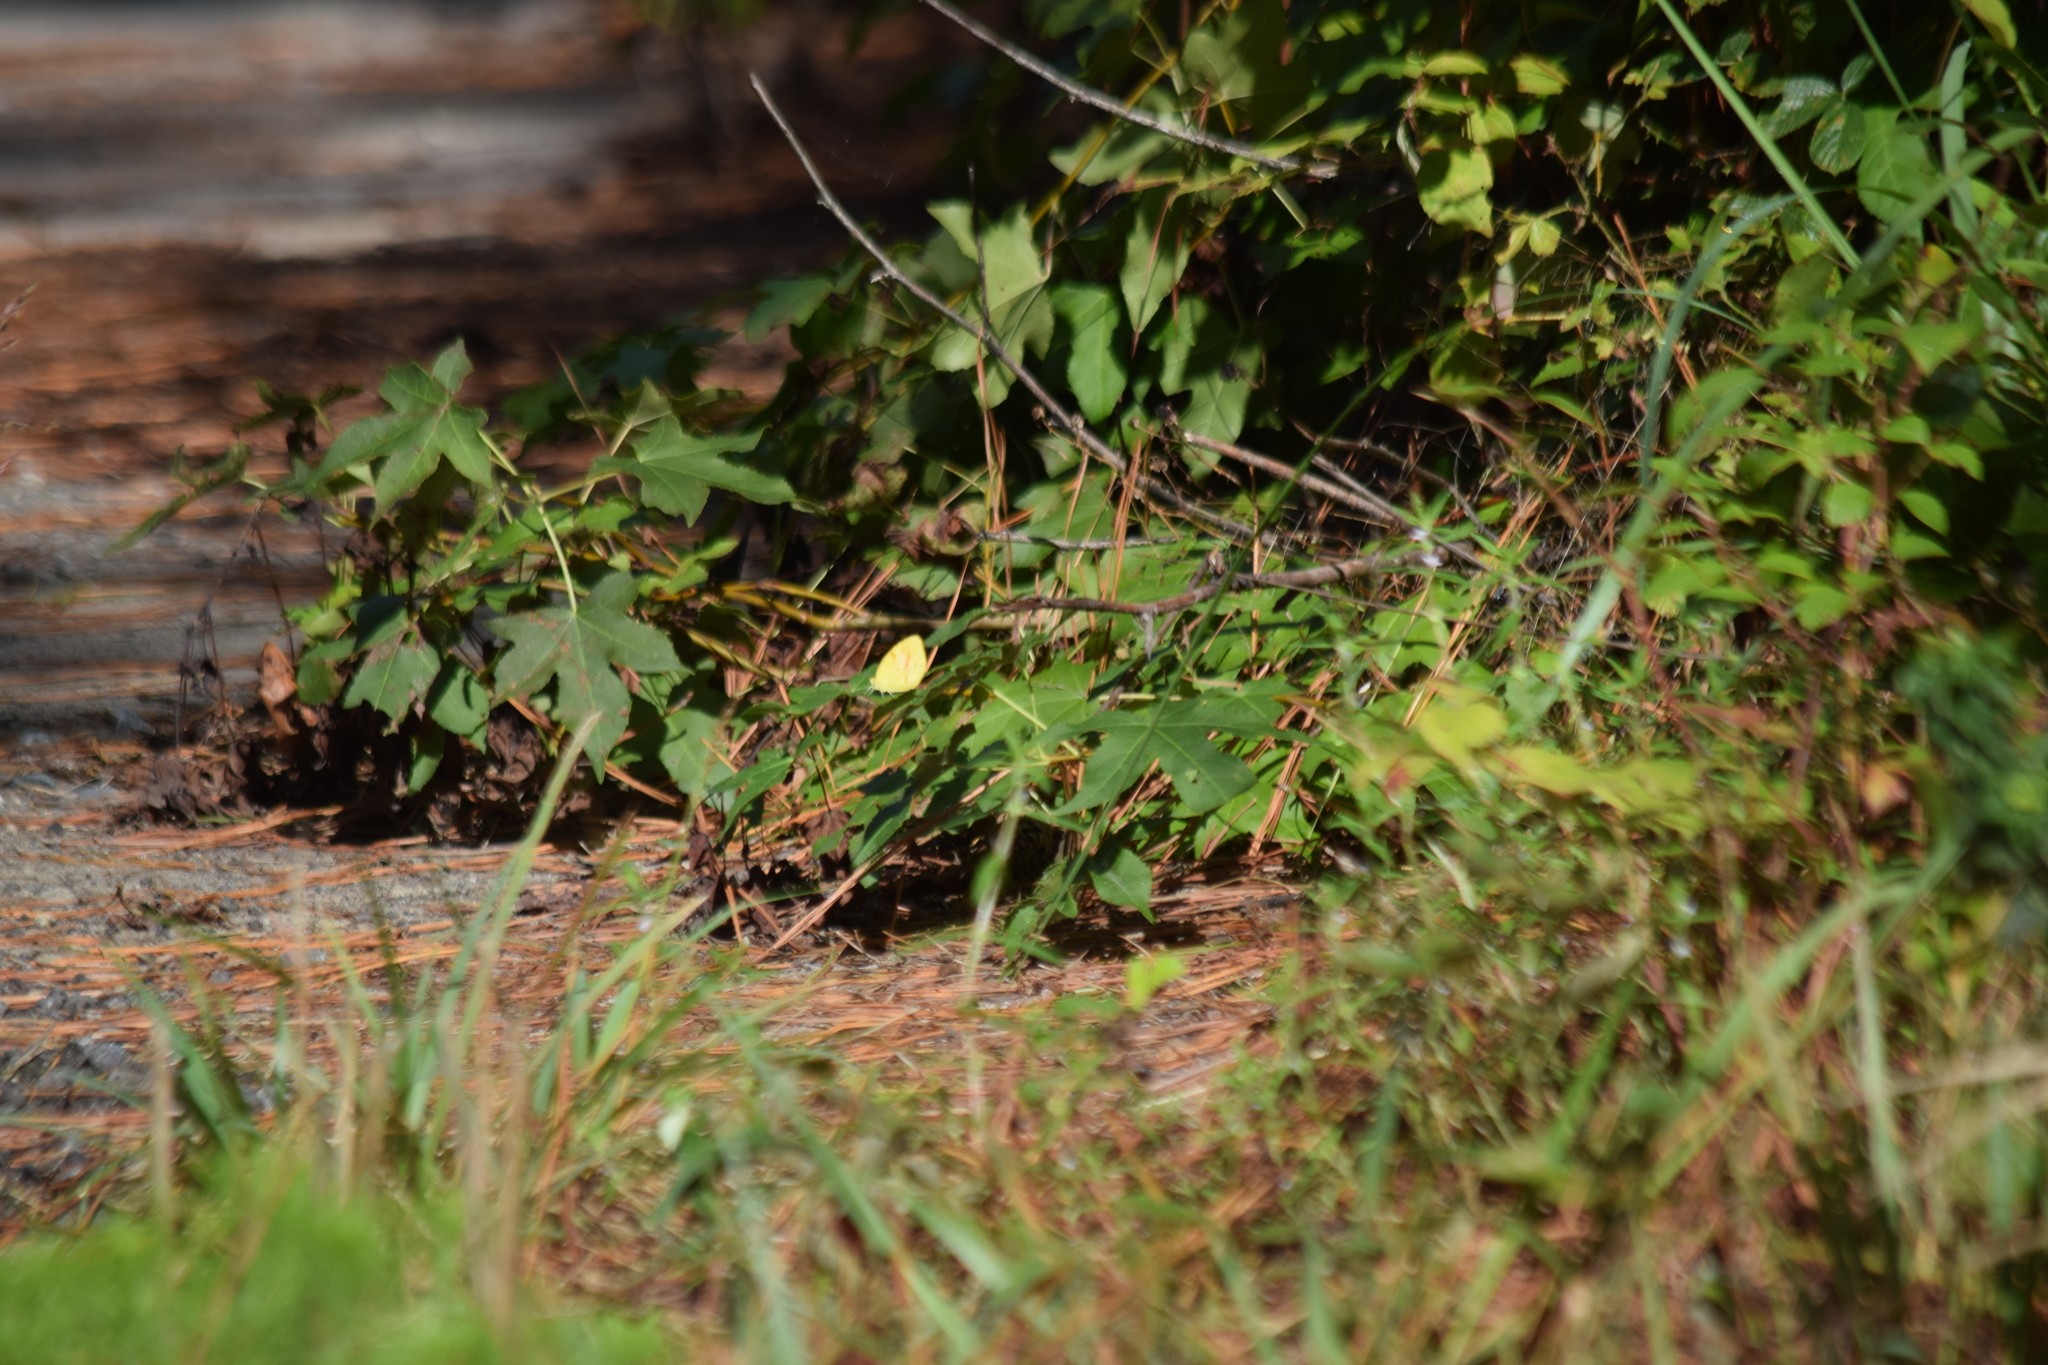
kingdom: Animalia
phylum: Arthropoda
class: Insecta
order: Lepidoptera
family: Pieridae
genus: Abaeis
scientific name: Abaeis nicippe
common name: Sleepy orange
